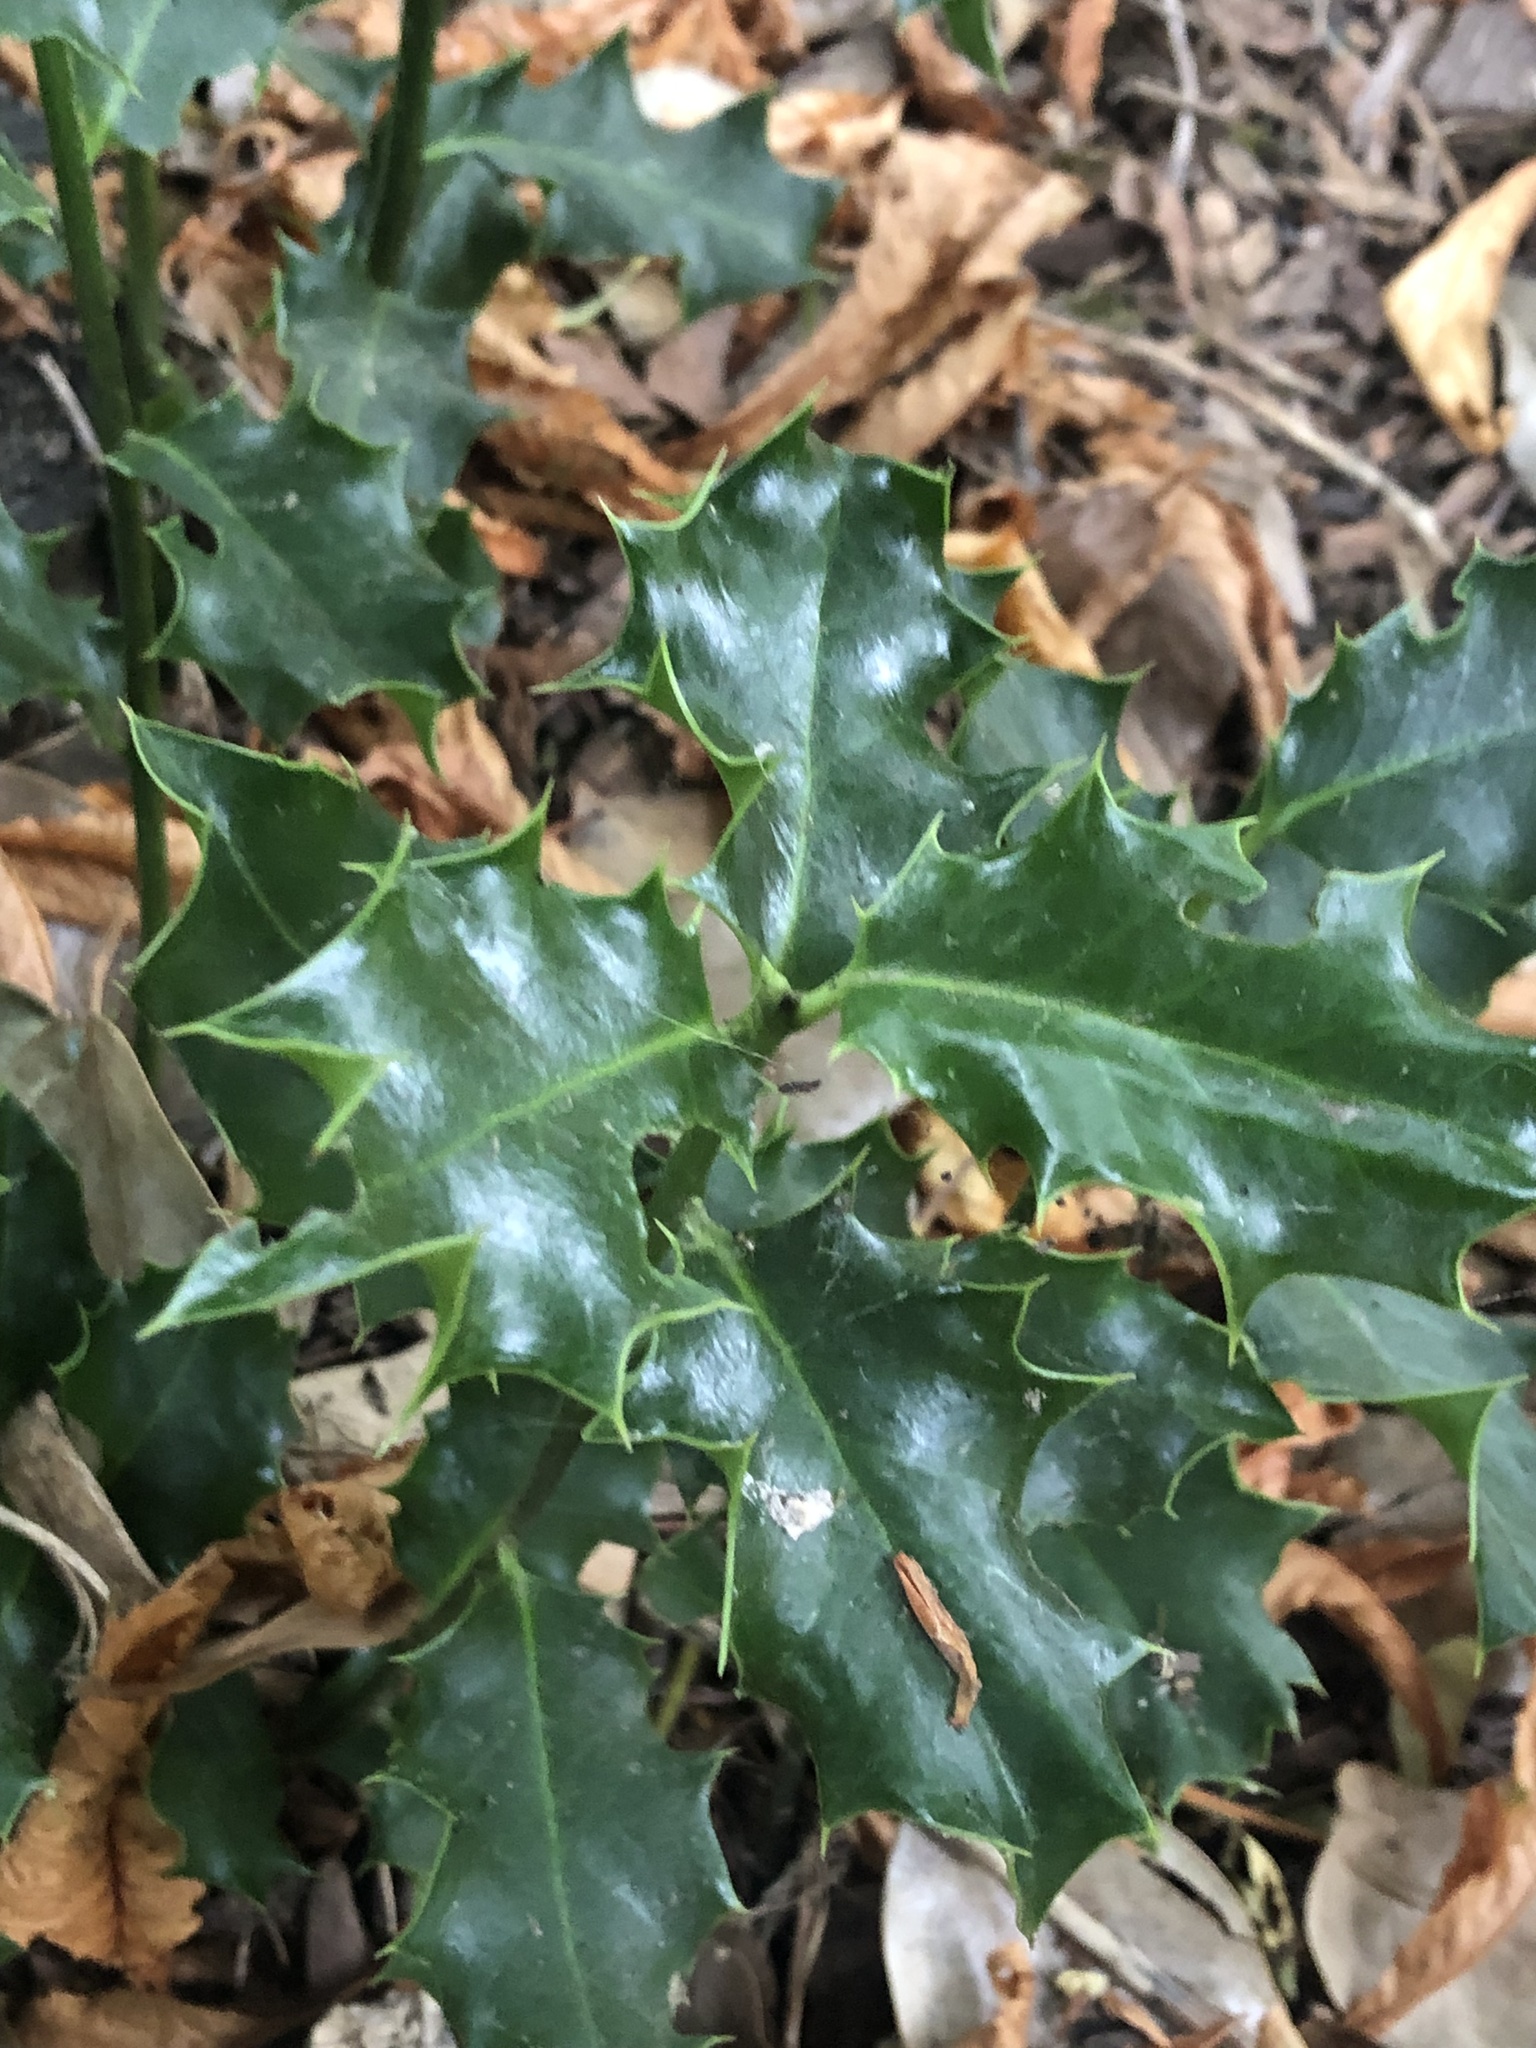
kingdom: Plantae
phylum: Tracheophyta
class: Magnoliopsida
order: Aquifoliales
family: Aquifoliaceae
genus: Ilex
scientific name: Ilex aquifolium
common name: English holly
